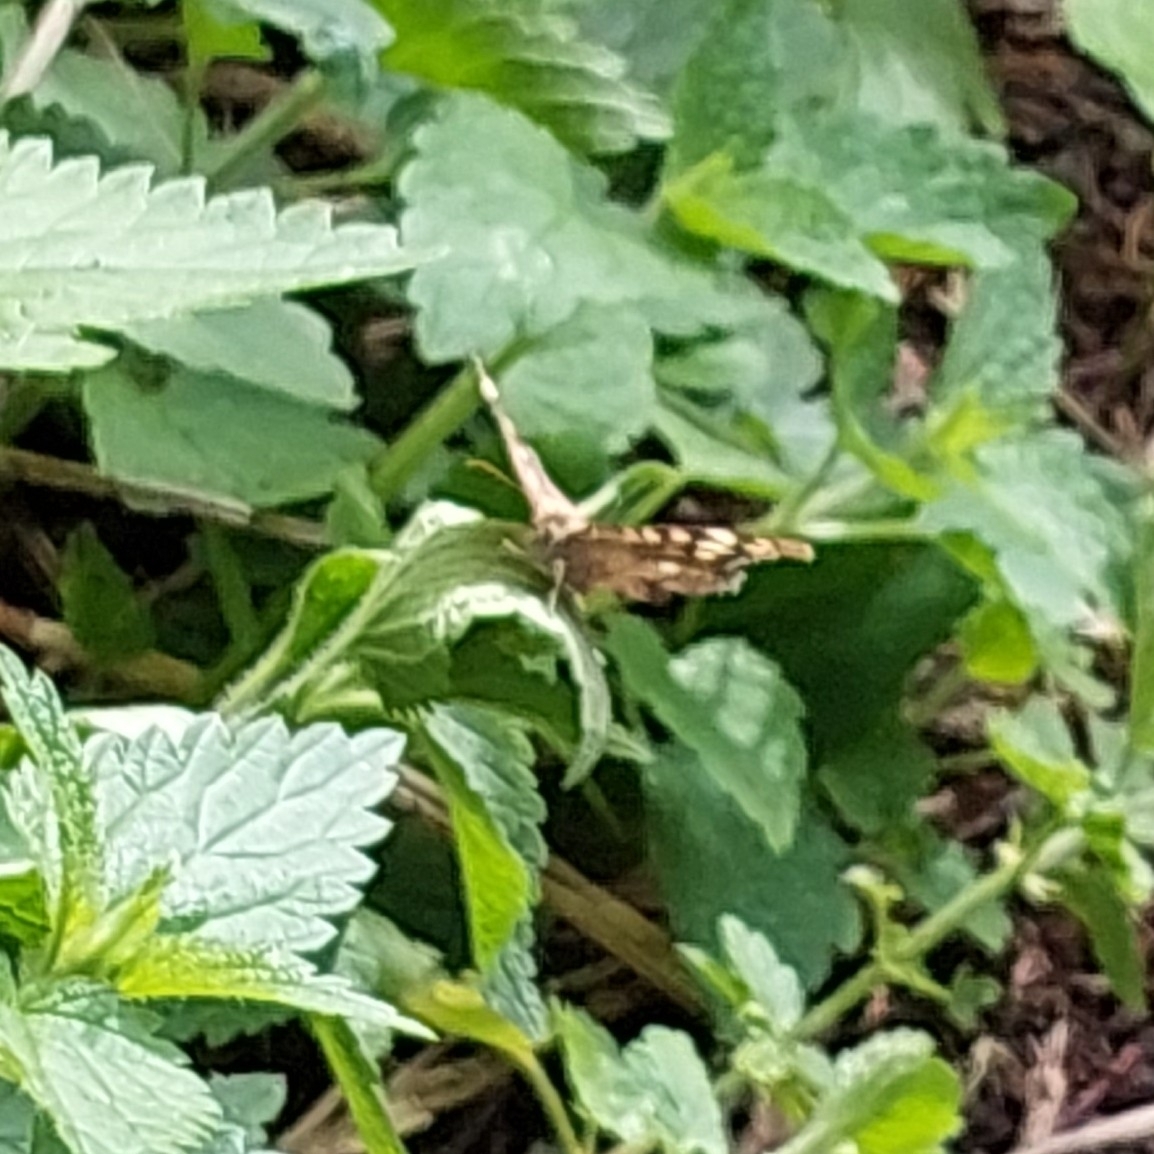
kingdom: Animalia
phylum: Arthropoda
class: Insecta
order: Lepidoptera
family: Nymphalidae
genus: Pararge
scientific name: Pararge aegeria
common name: Speckled wood
